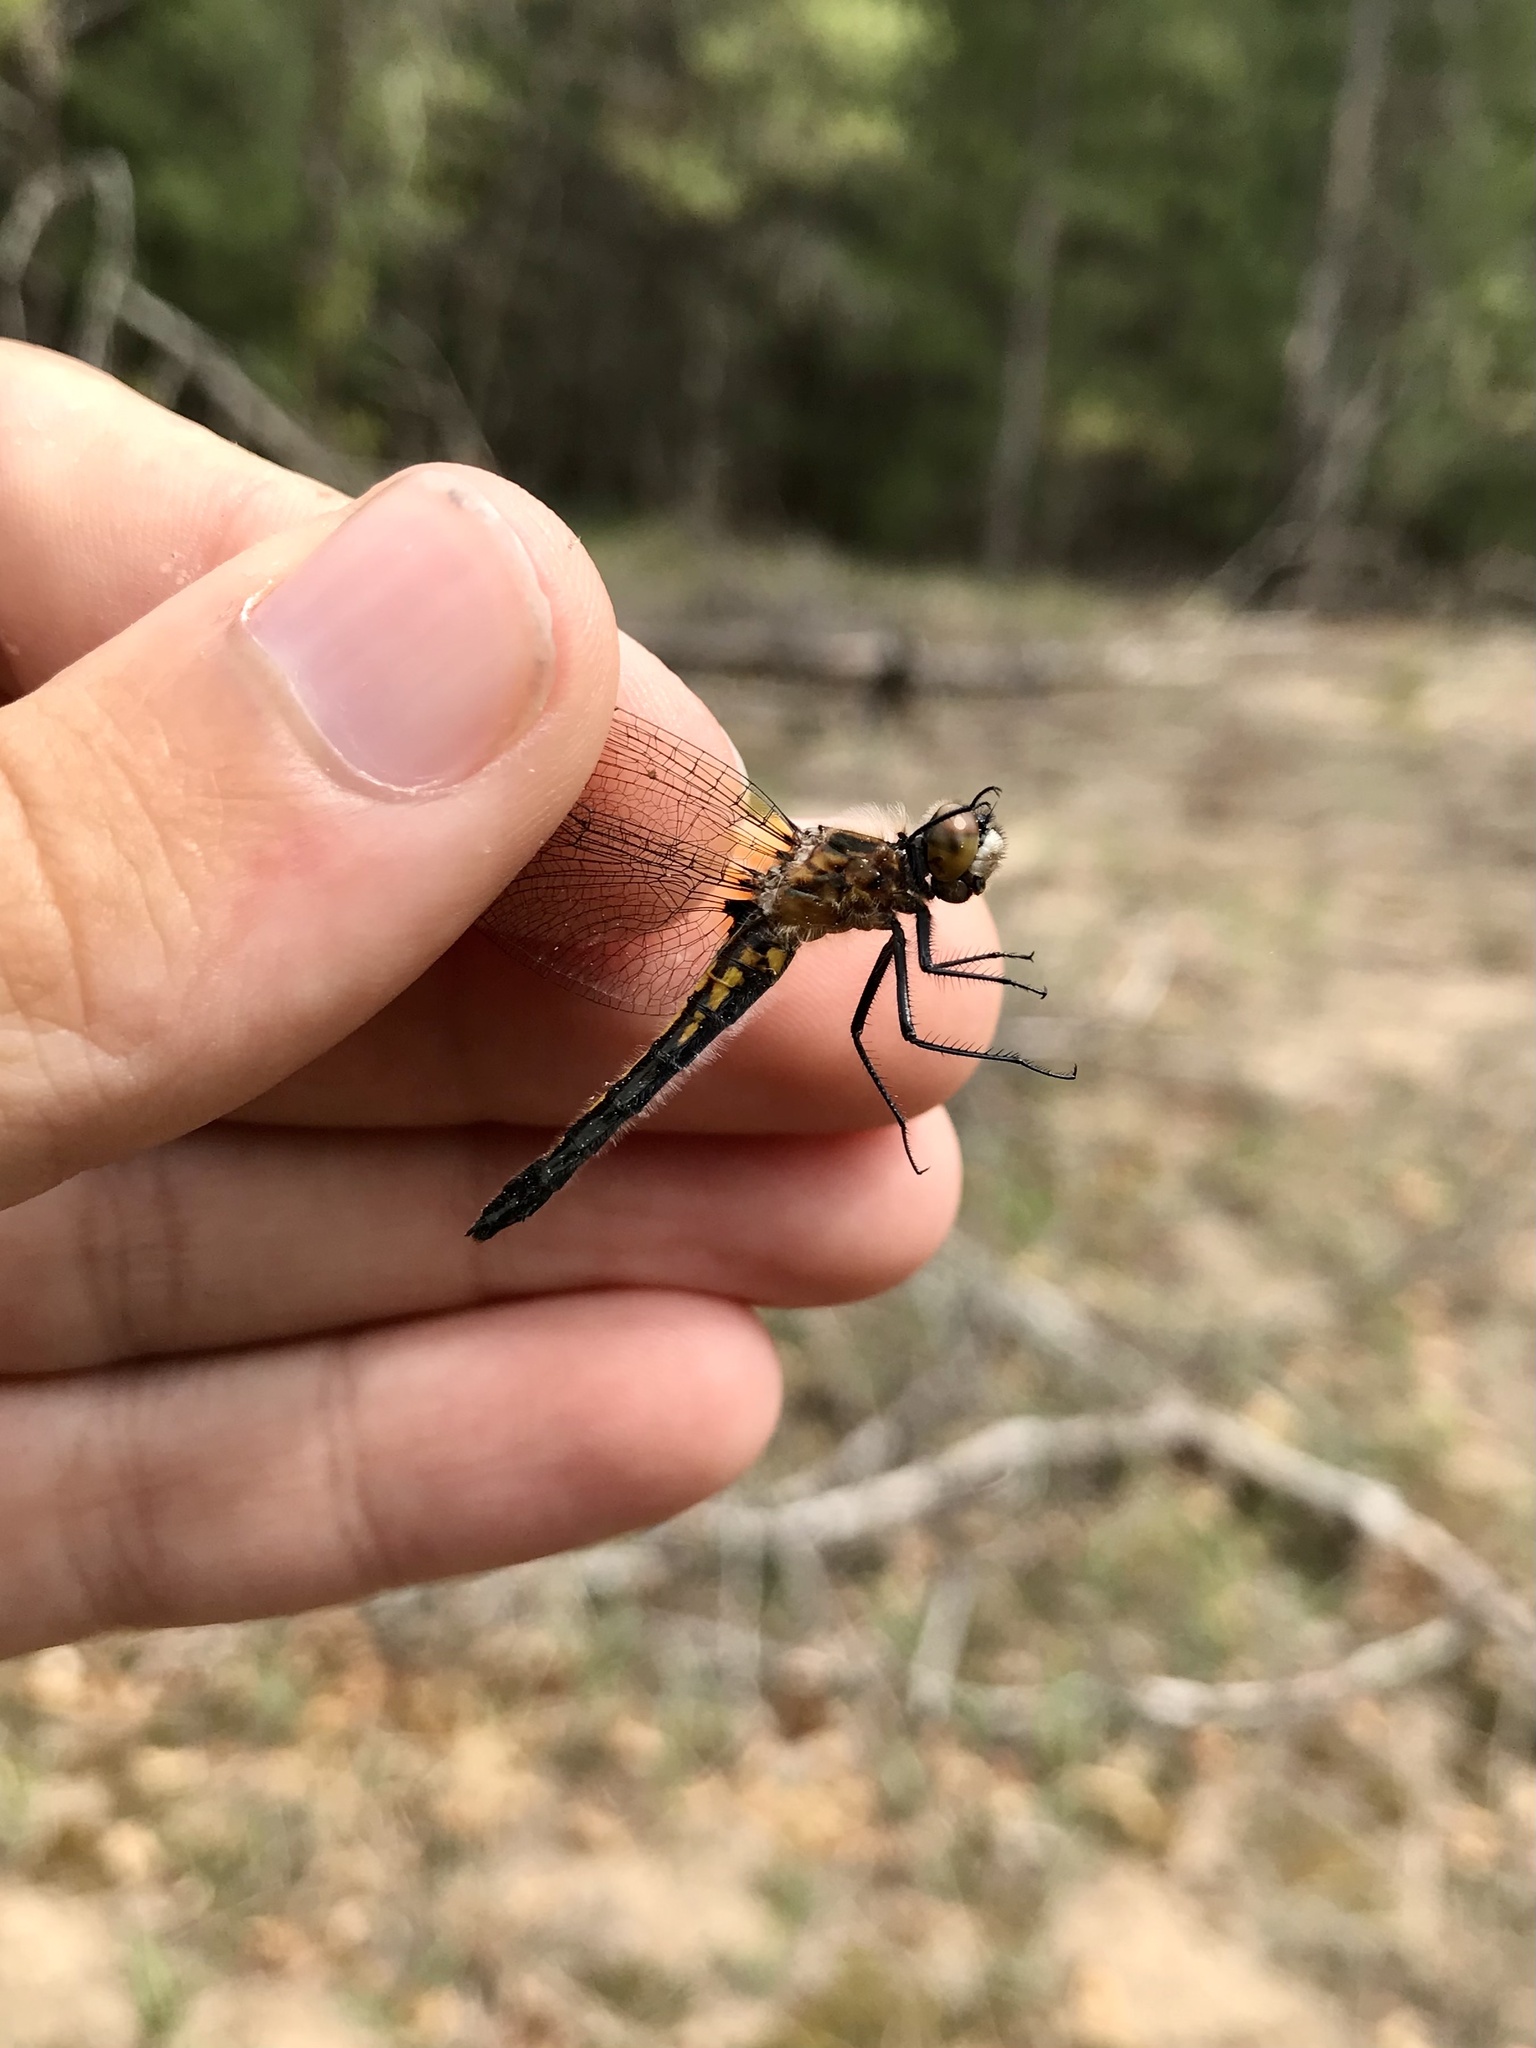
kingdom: Animalia
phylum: Arthropoda
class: Insecta
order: Odonata
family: Libellulidae
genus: Leucorrhinia
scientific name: Leucorrhinia intacta
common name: Dot-tailed whiteface
